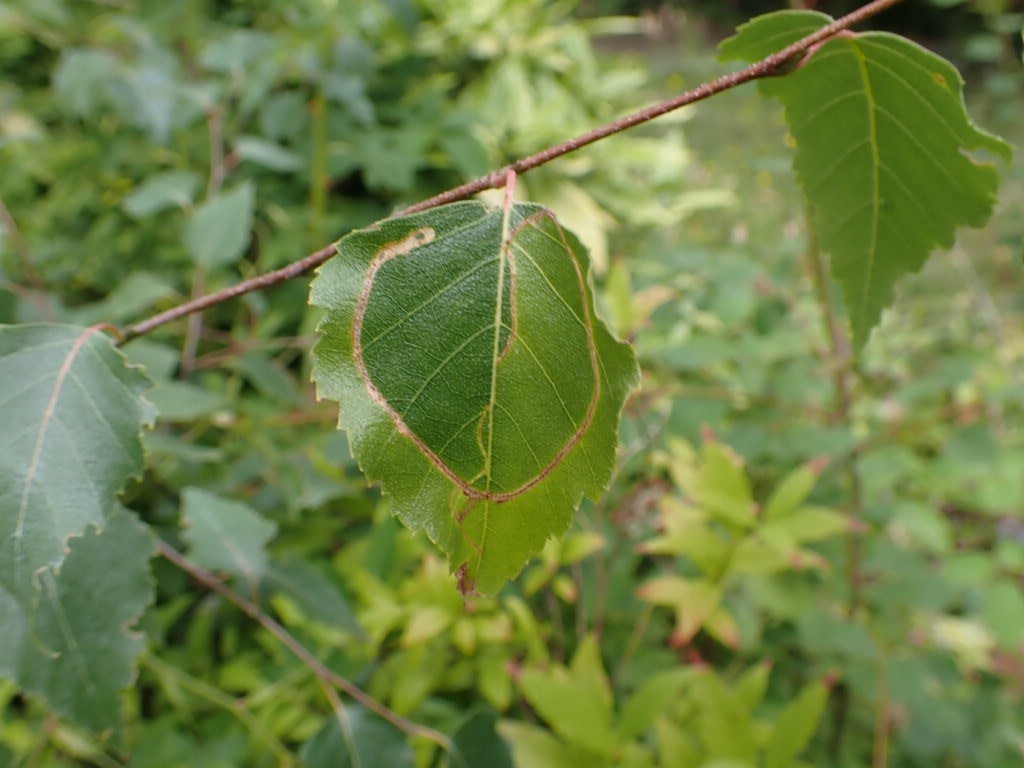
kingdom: Animalia
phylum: Arthropoda
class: Insecta
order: Lepidoptera
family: Lyonetiidae
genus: Lyonetia
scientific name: Lyonetia clerkella
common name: Apple leaf miner
